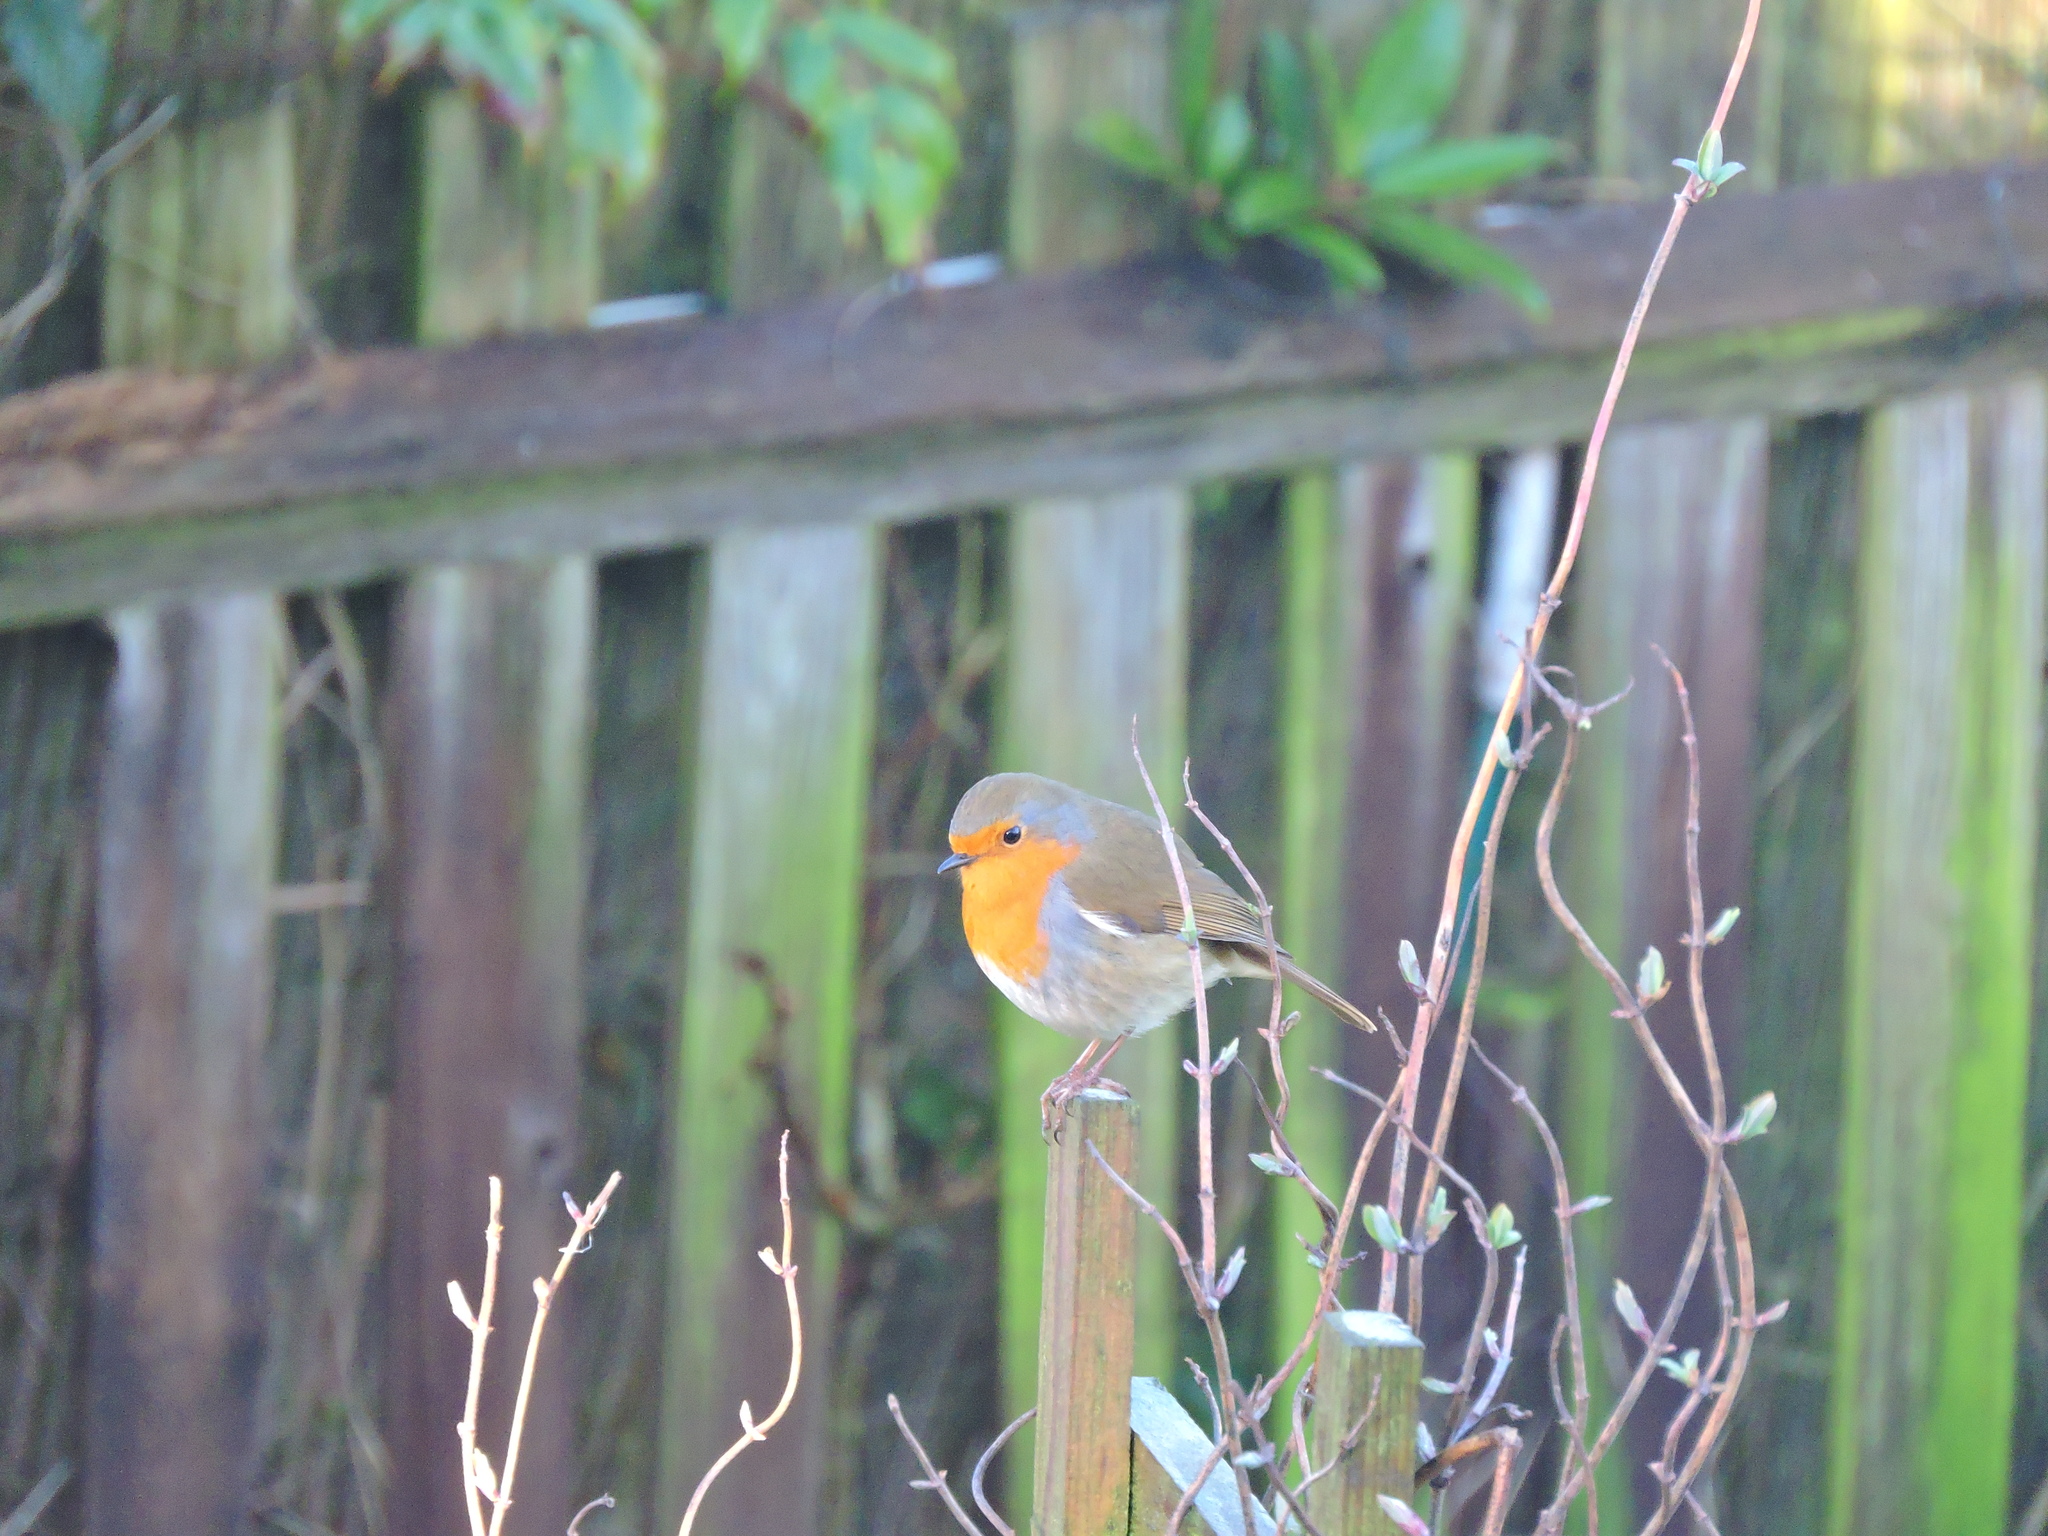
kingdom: Animalia
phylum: Chordata
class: Aves
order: Passeriformes
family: Muscicapidae
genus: Erithacus
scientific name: Erithacus rubecula
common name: European robin
